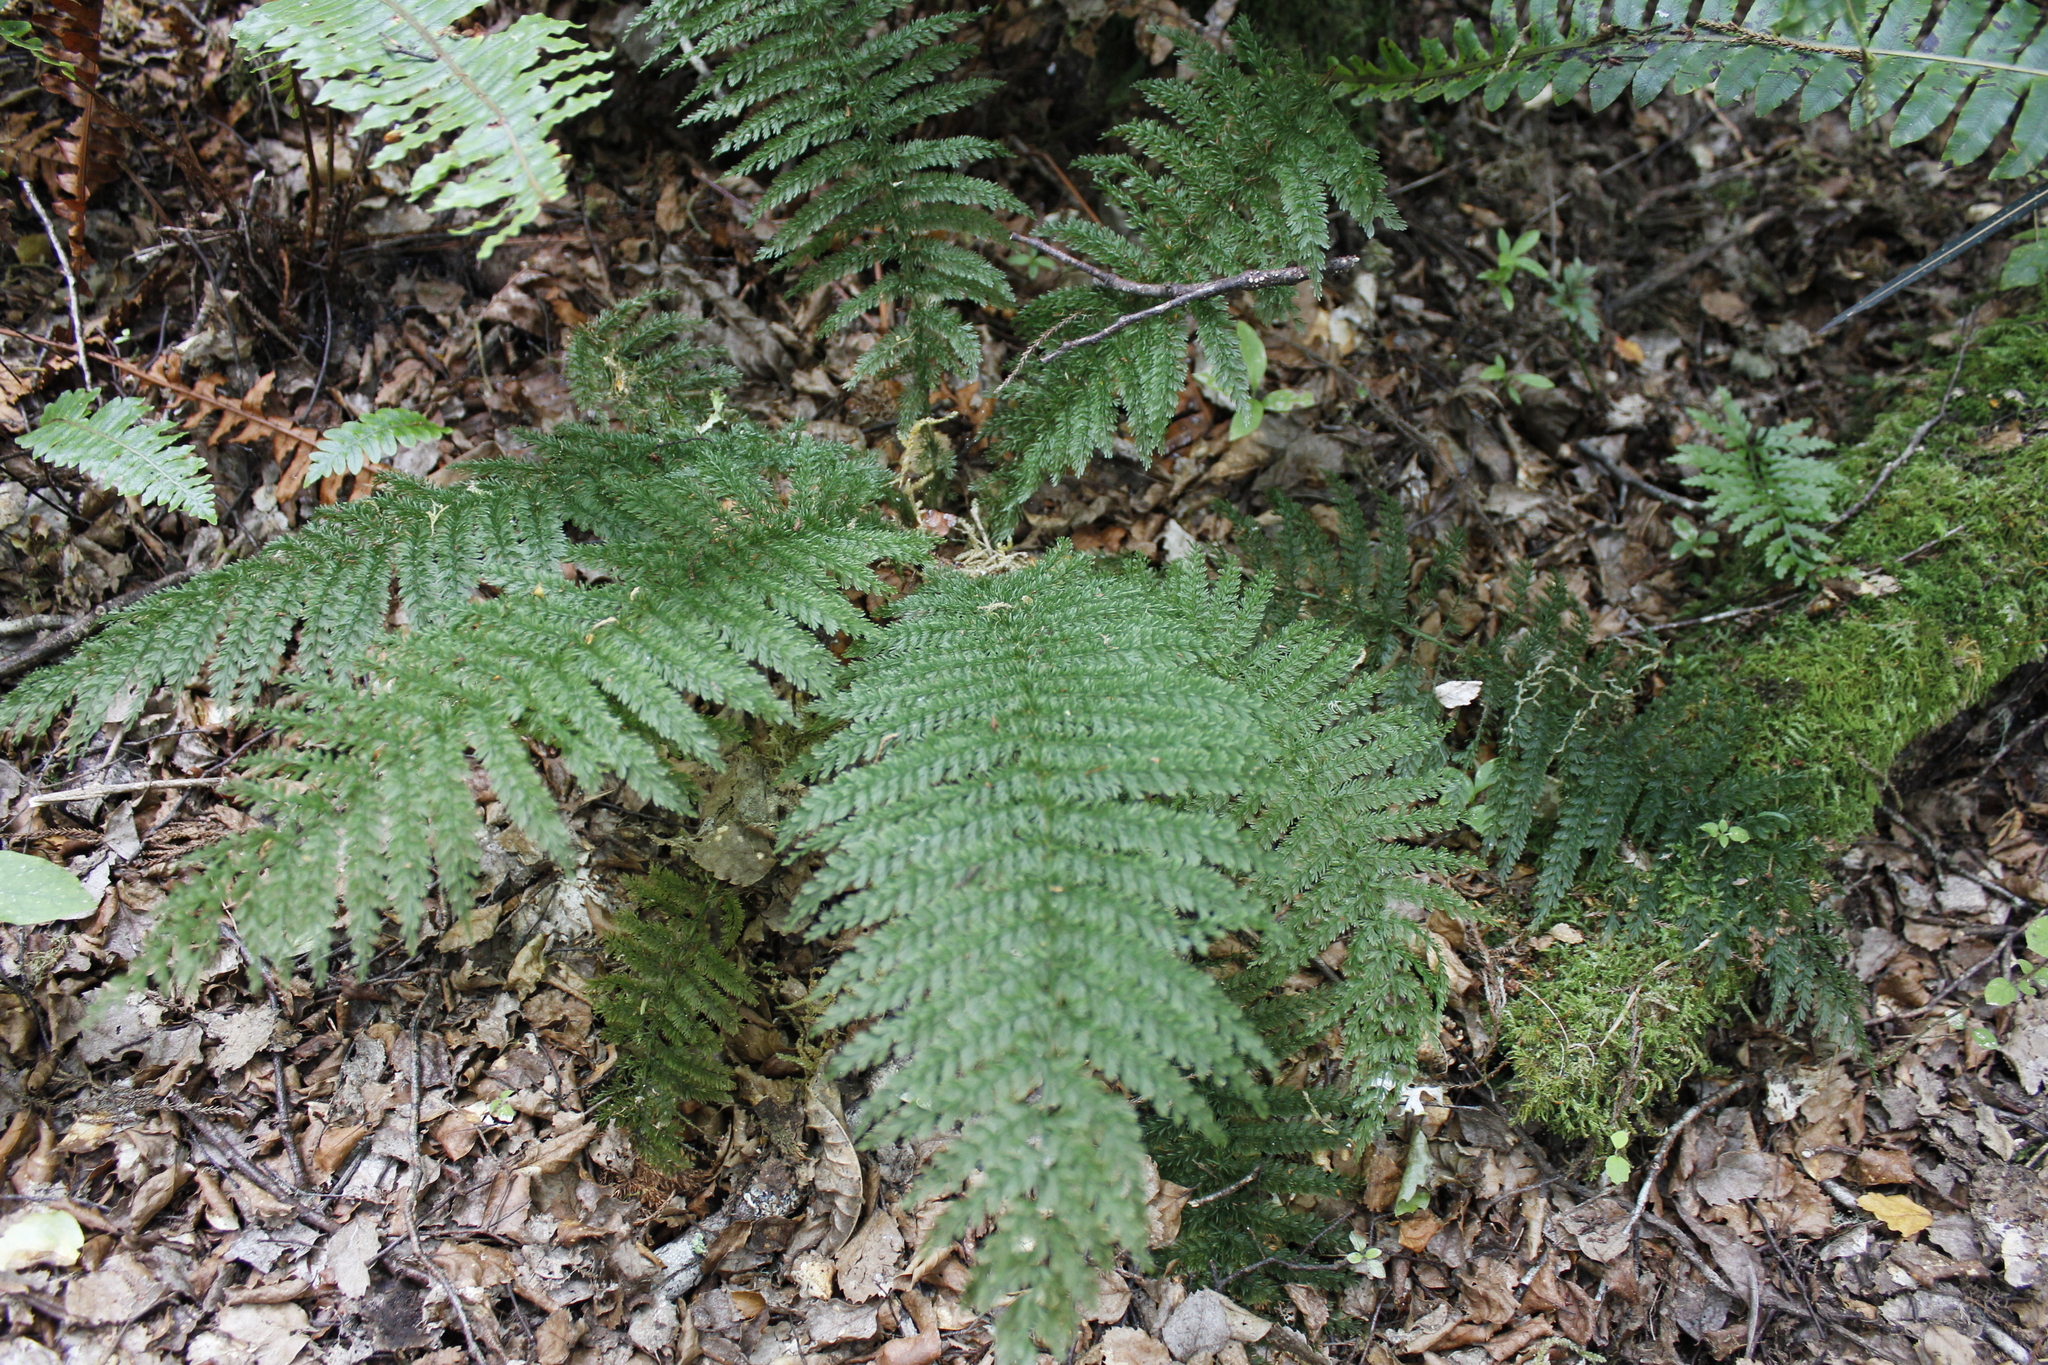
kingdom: Plantae
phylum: Tracheophyta
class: Polypodiopsida
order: Osmundales
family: Osmundaceae
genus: Leptopteris
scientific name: Leptopteris superba
